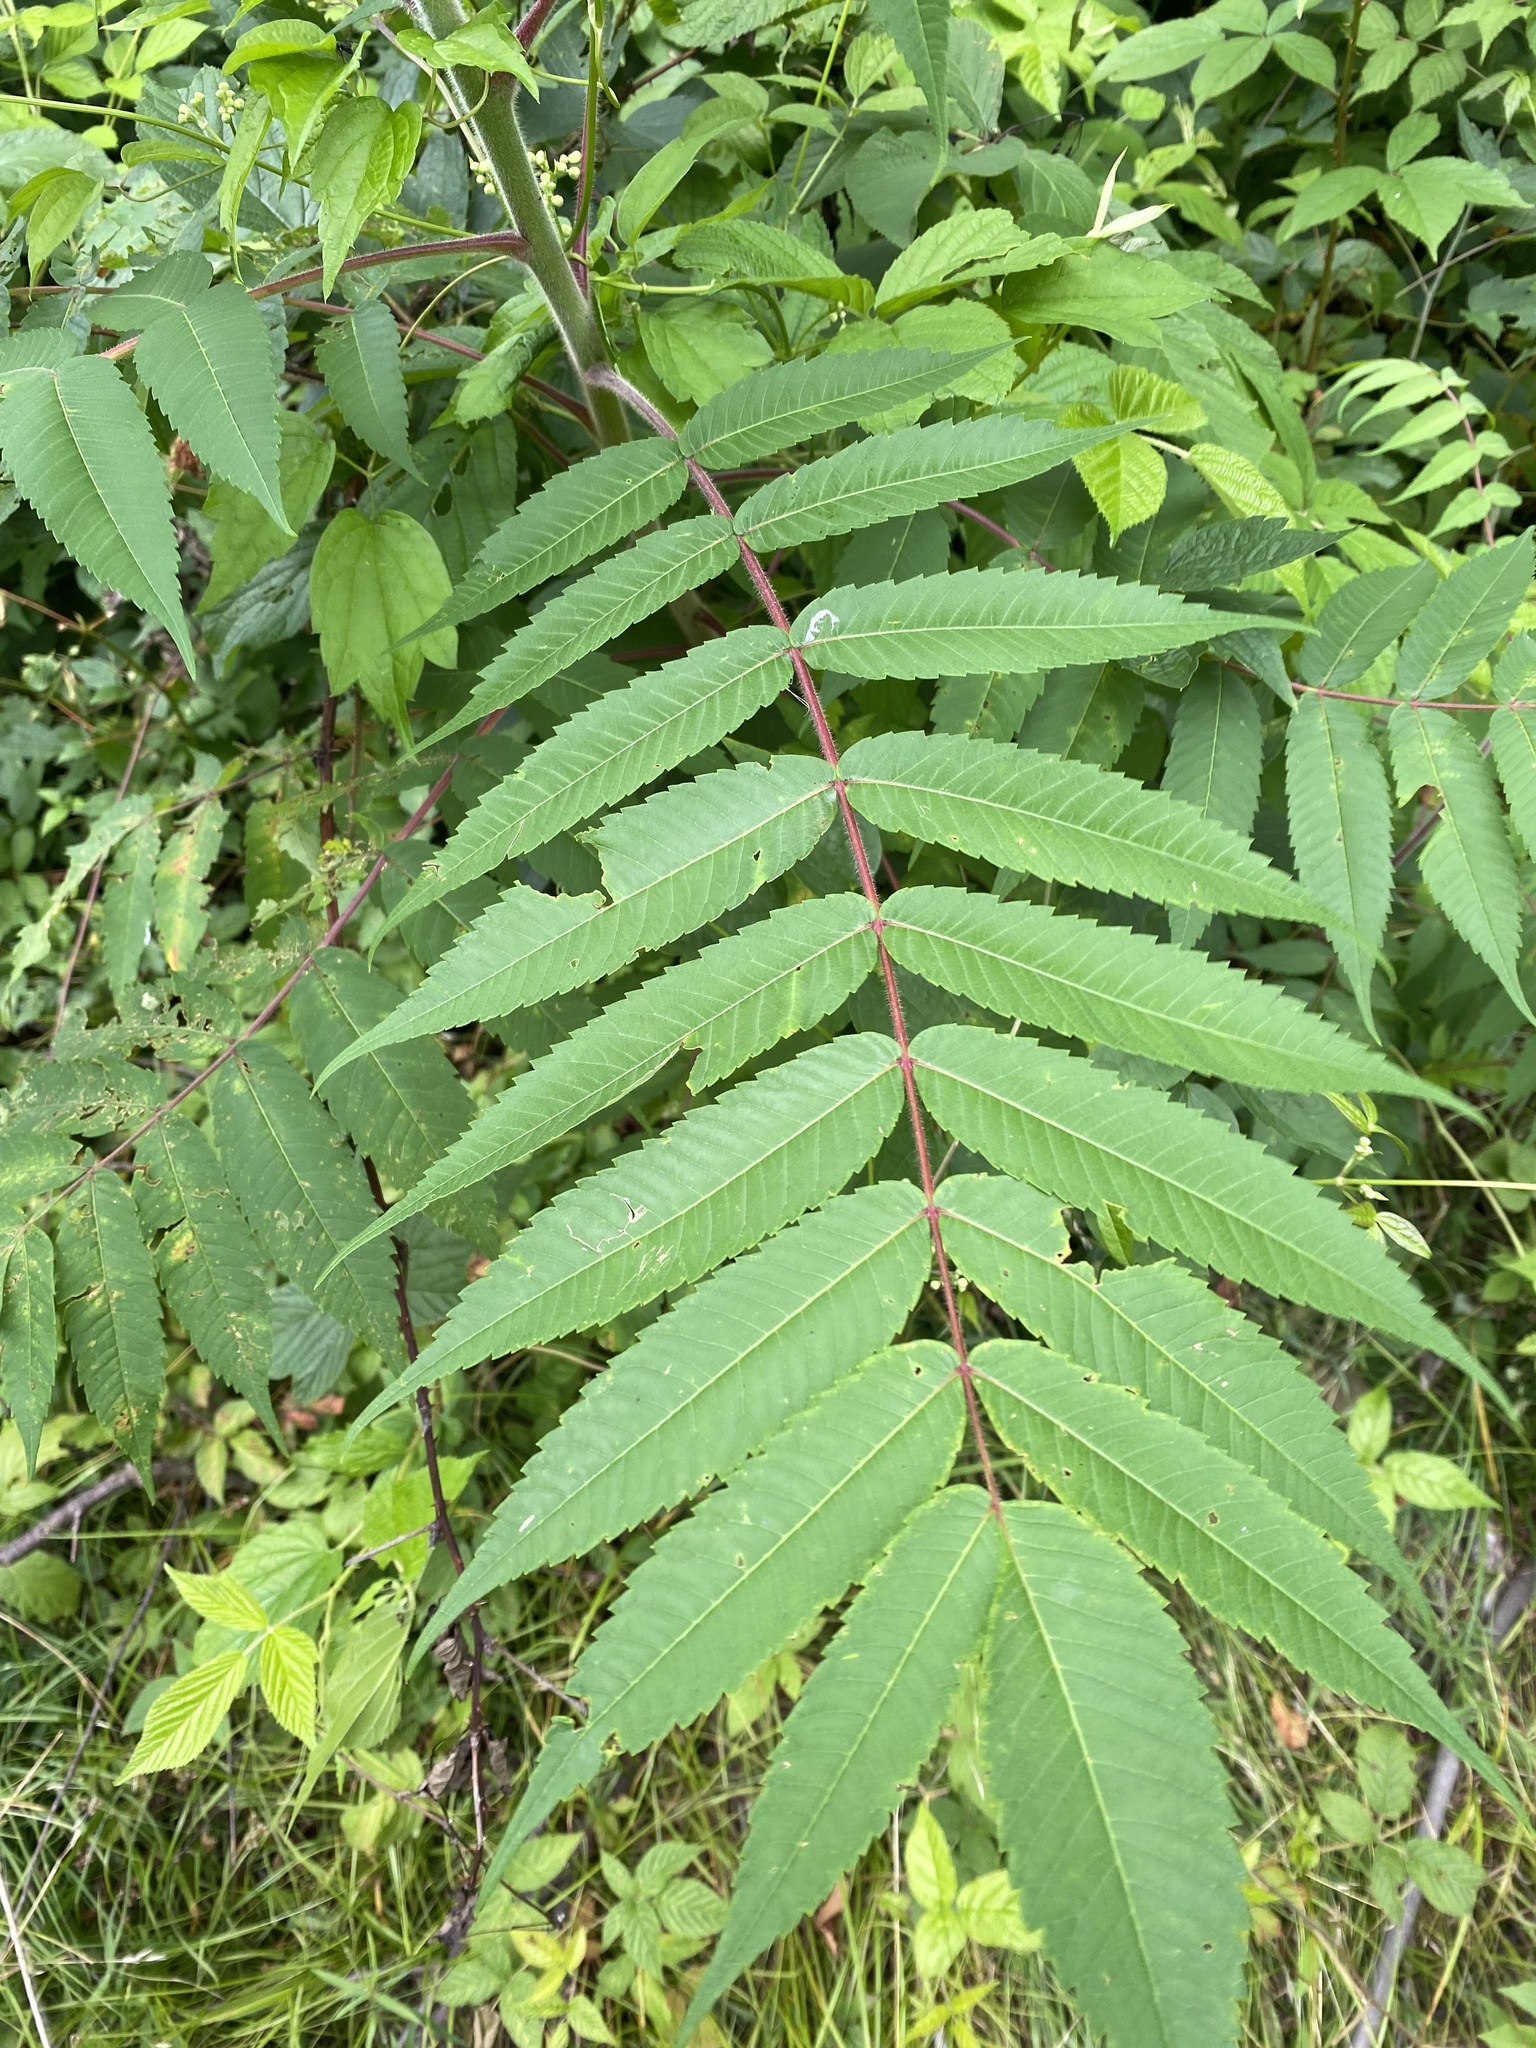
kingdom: Plantae
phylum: Tracheophyta
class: Magnoliopsida
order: Sapindales
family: Anacardiaceae
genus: Rhus
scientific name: Rhus typhina
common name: Staghorn sumac
